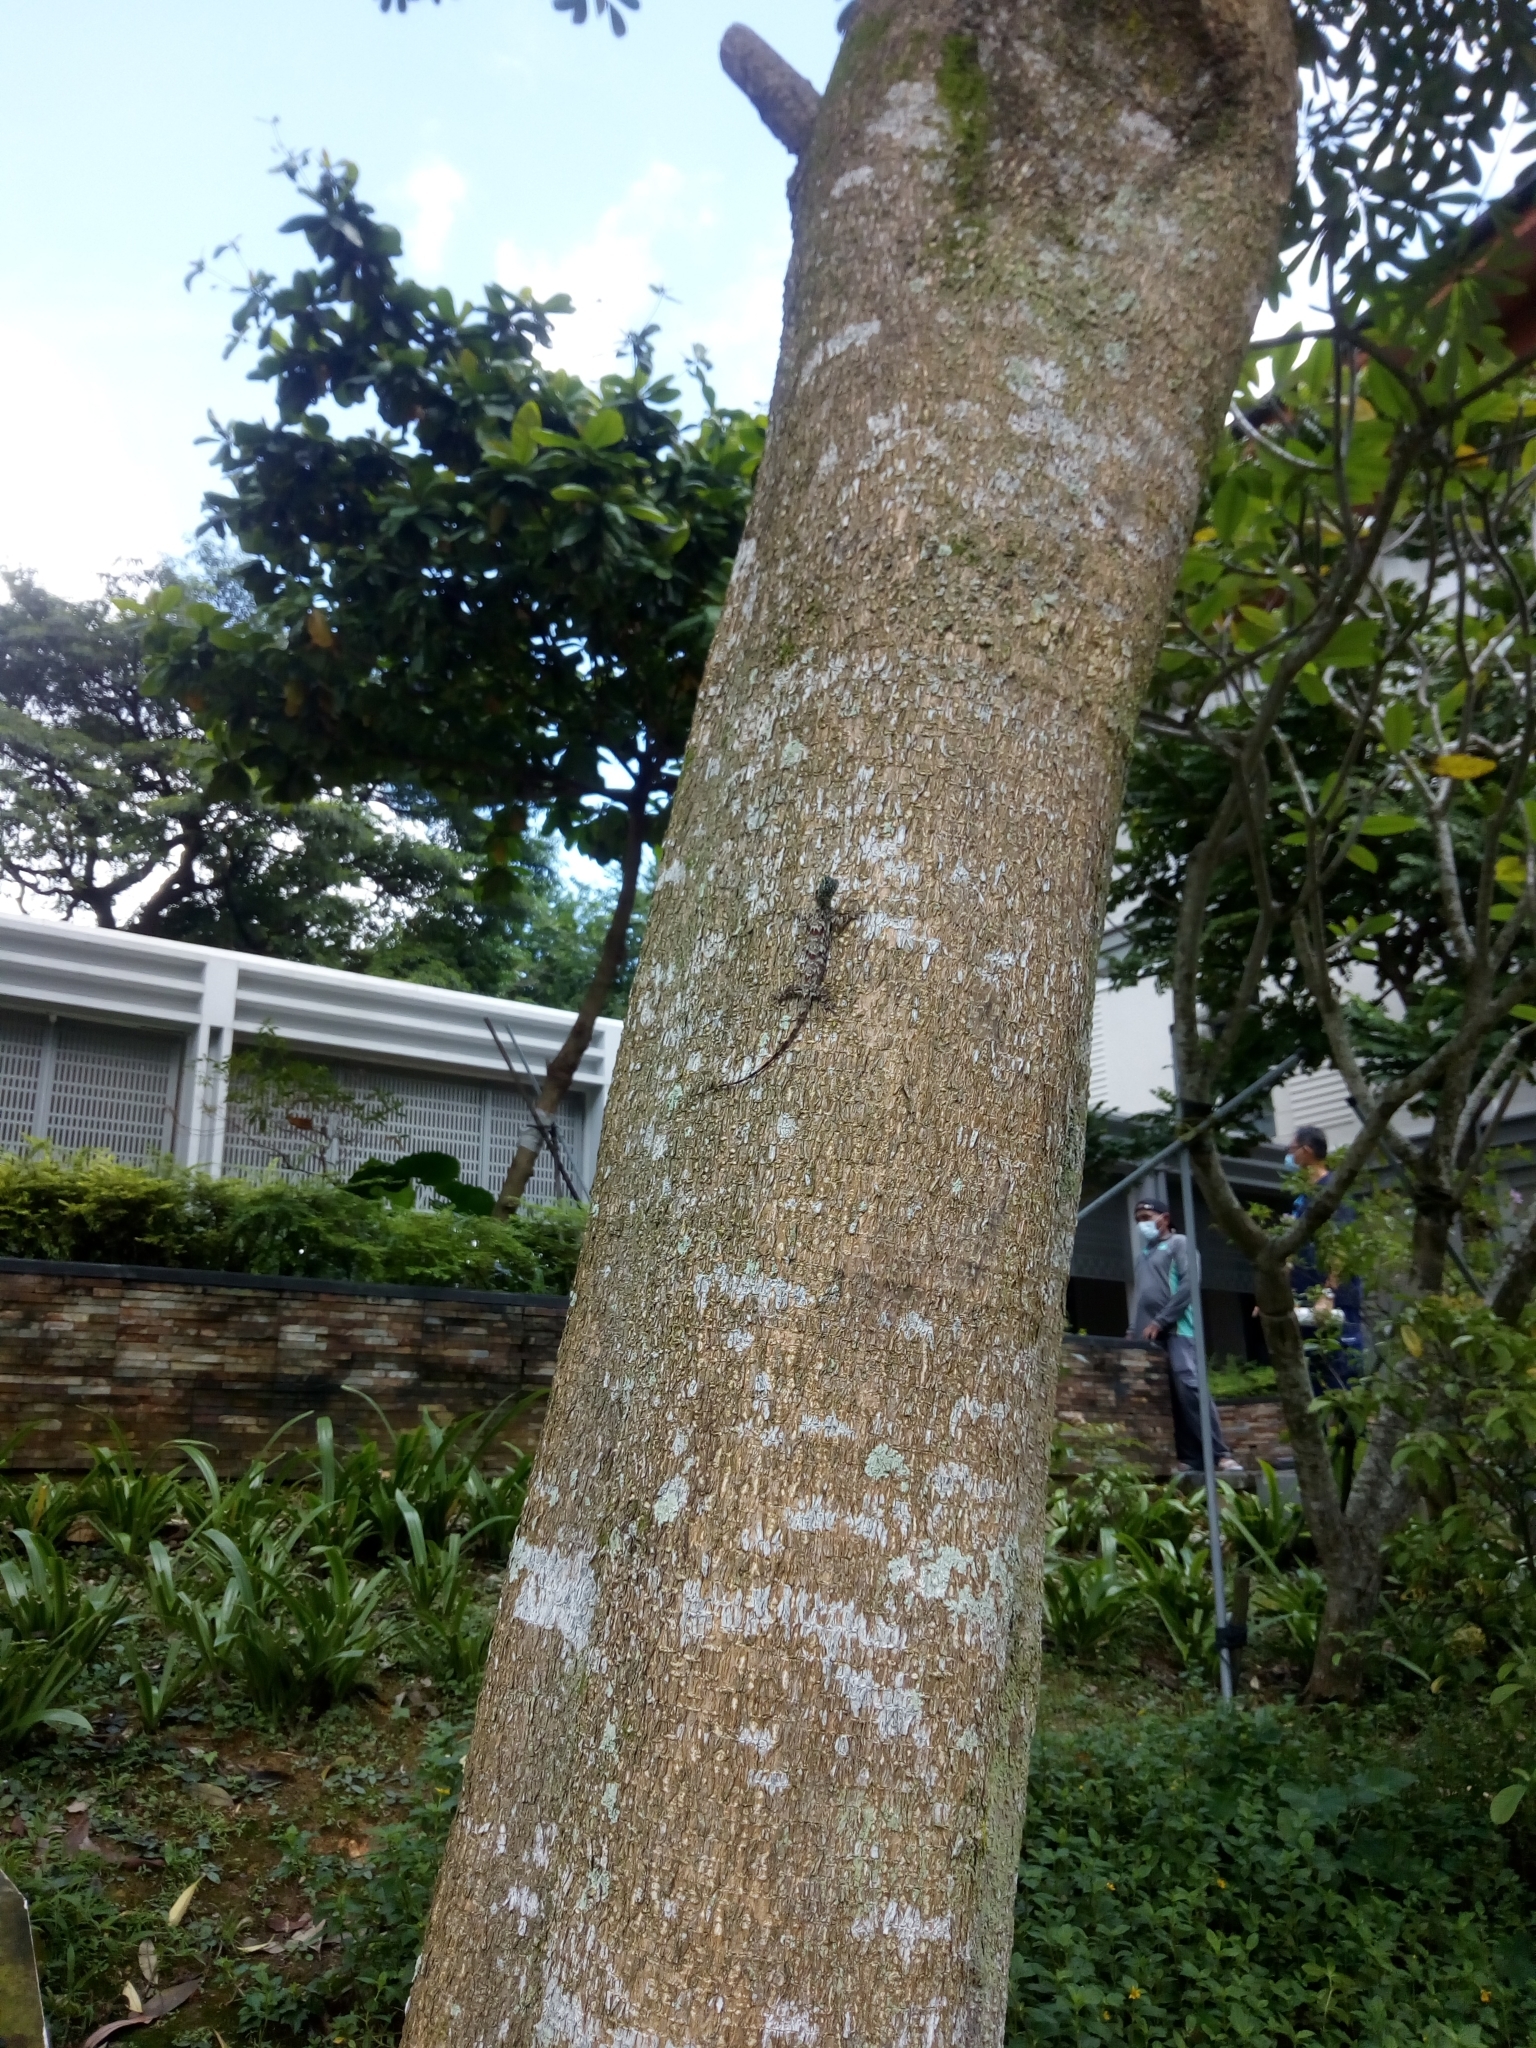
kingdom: Animalia
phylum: Chordata
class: Squamata
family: Agamidae
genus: Draco
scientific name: Draco sumatranus
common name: Common gliding lizard
